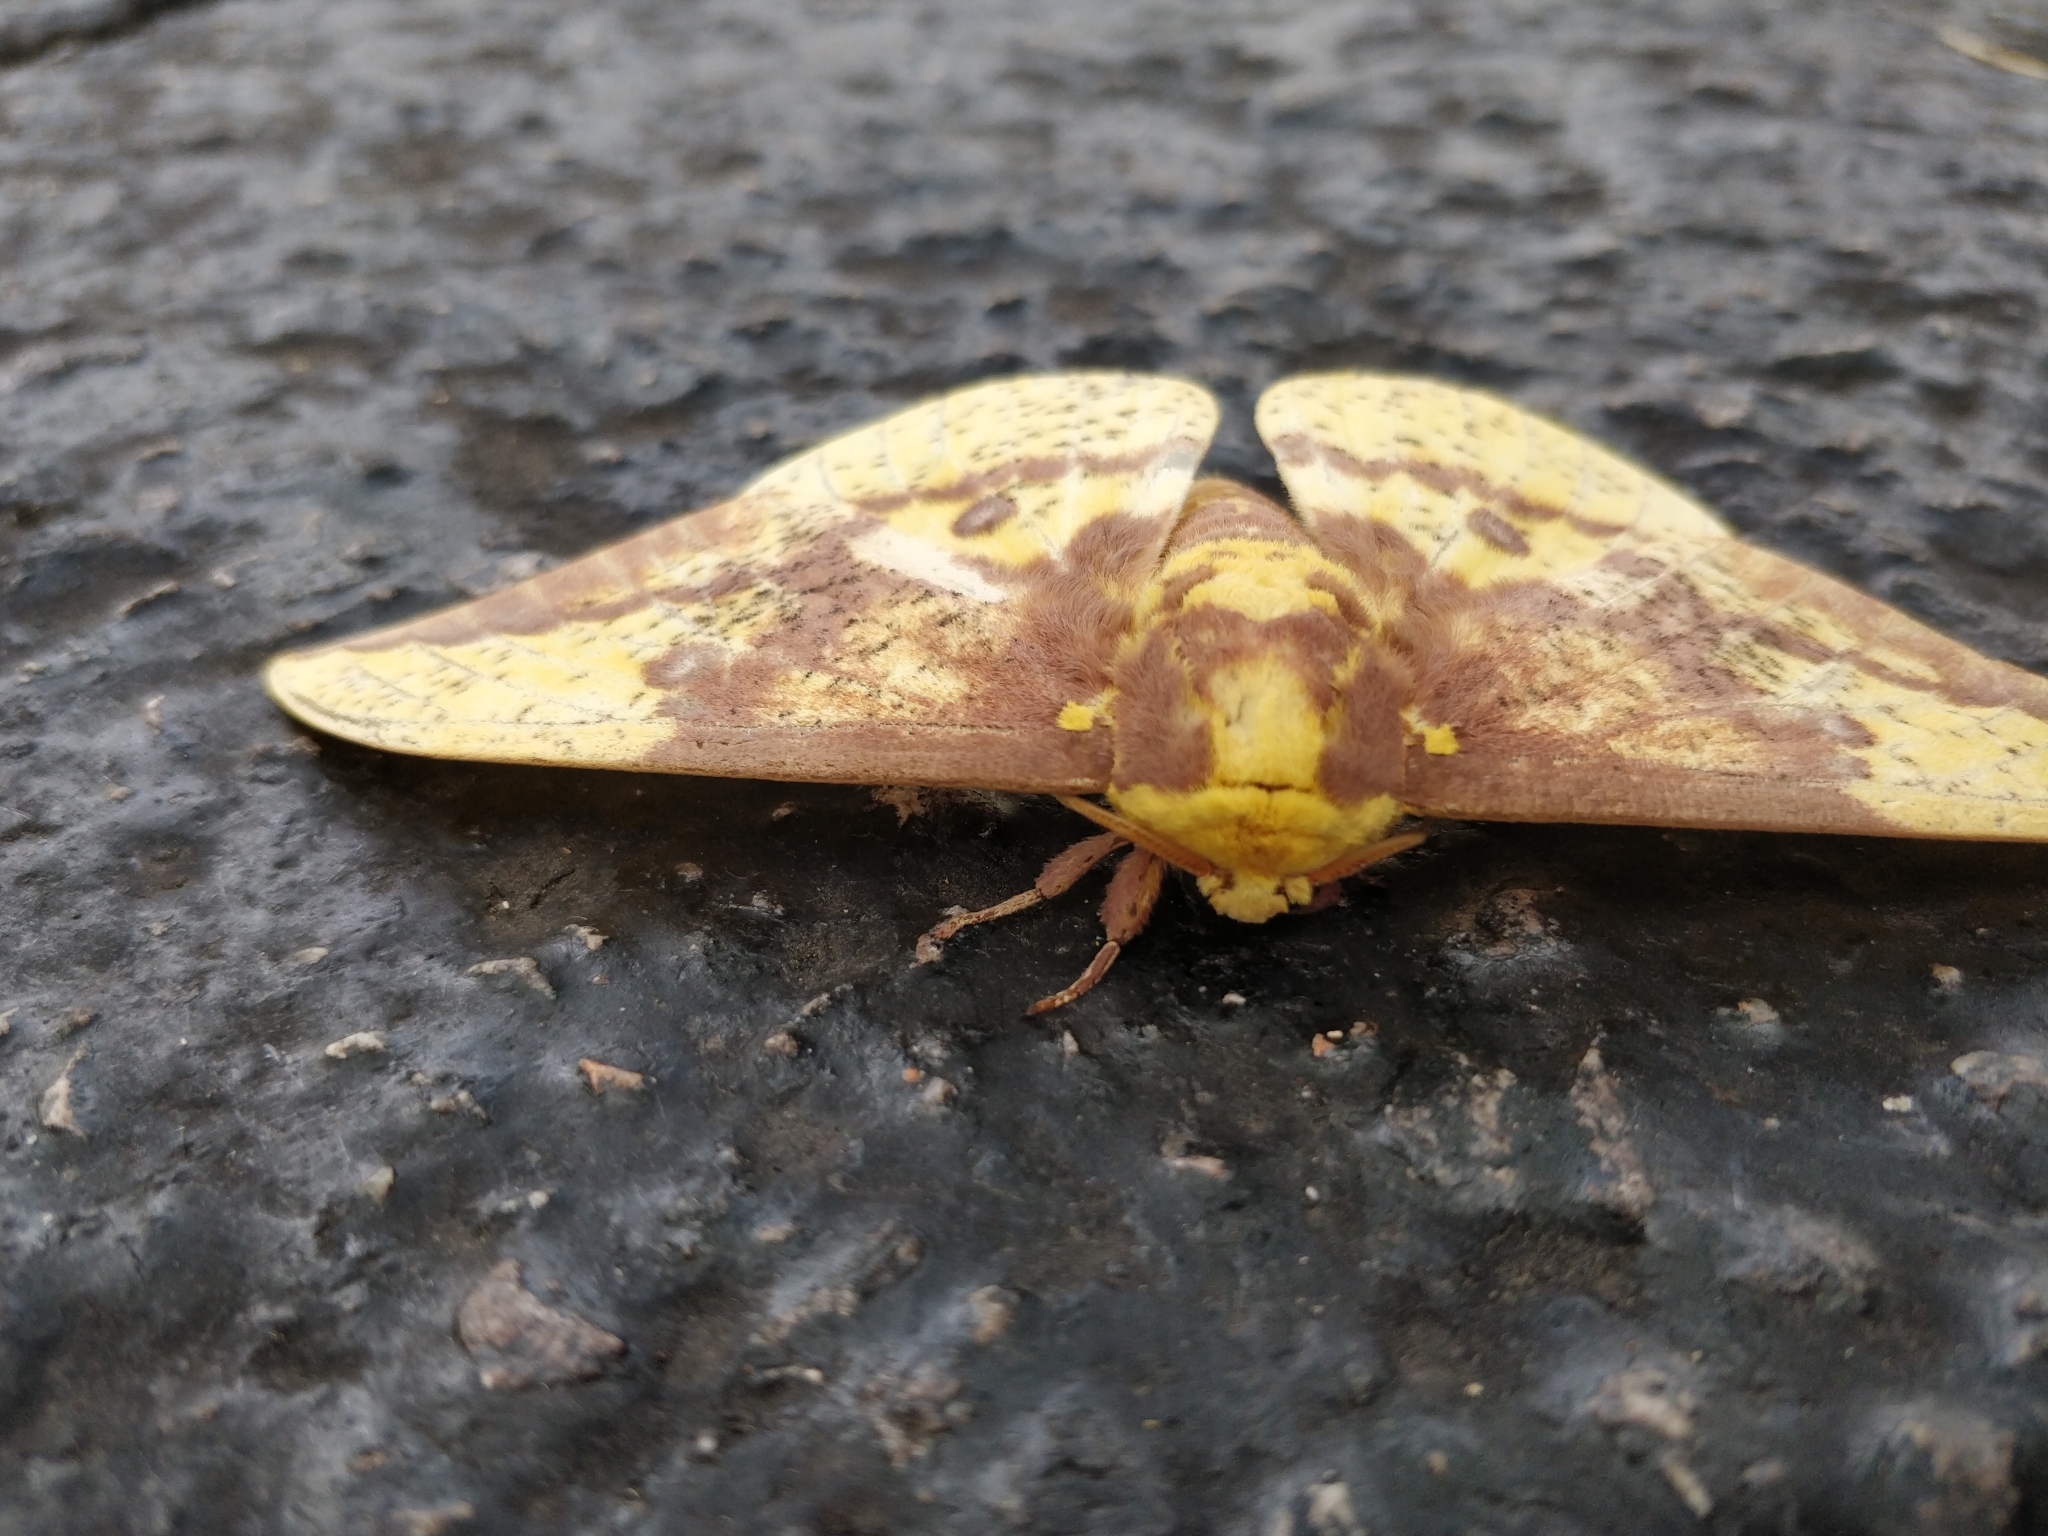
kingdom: Animalia
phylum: Arthropoda
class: Insecta
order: Lepidoptera
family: Saturniidae
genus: Eacles
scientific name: Eacles imperialis
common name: Imperial moth
